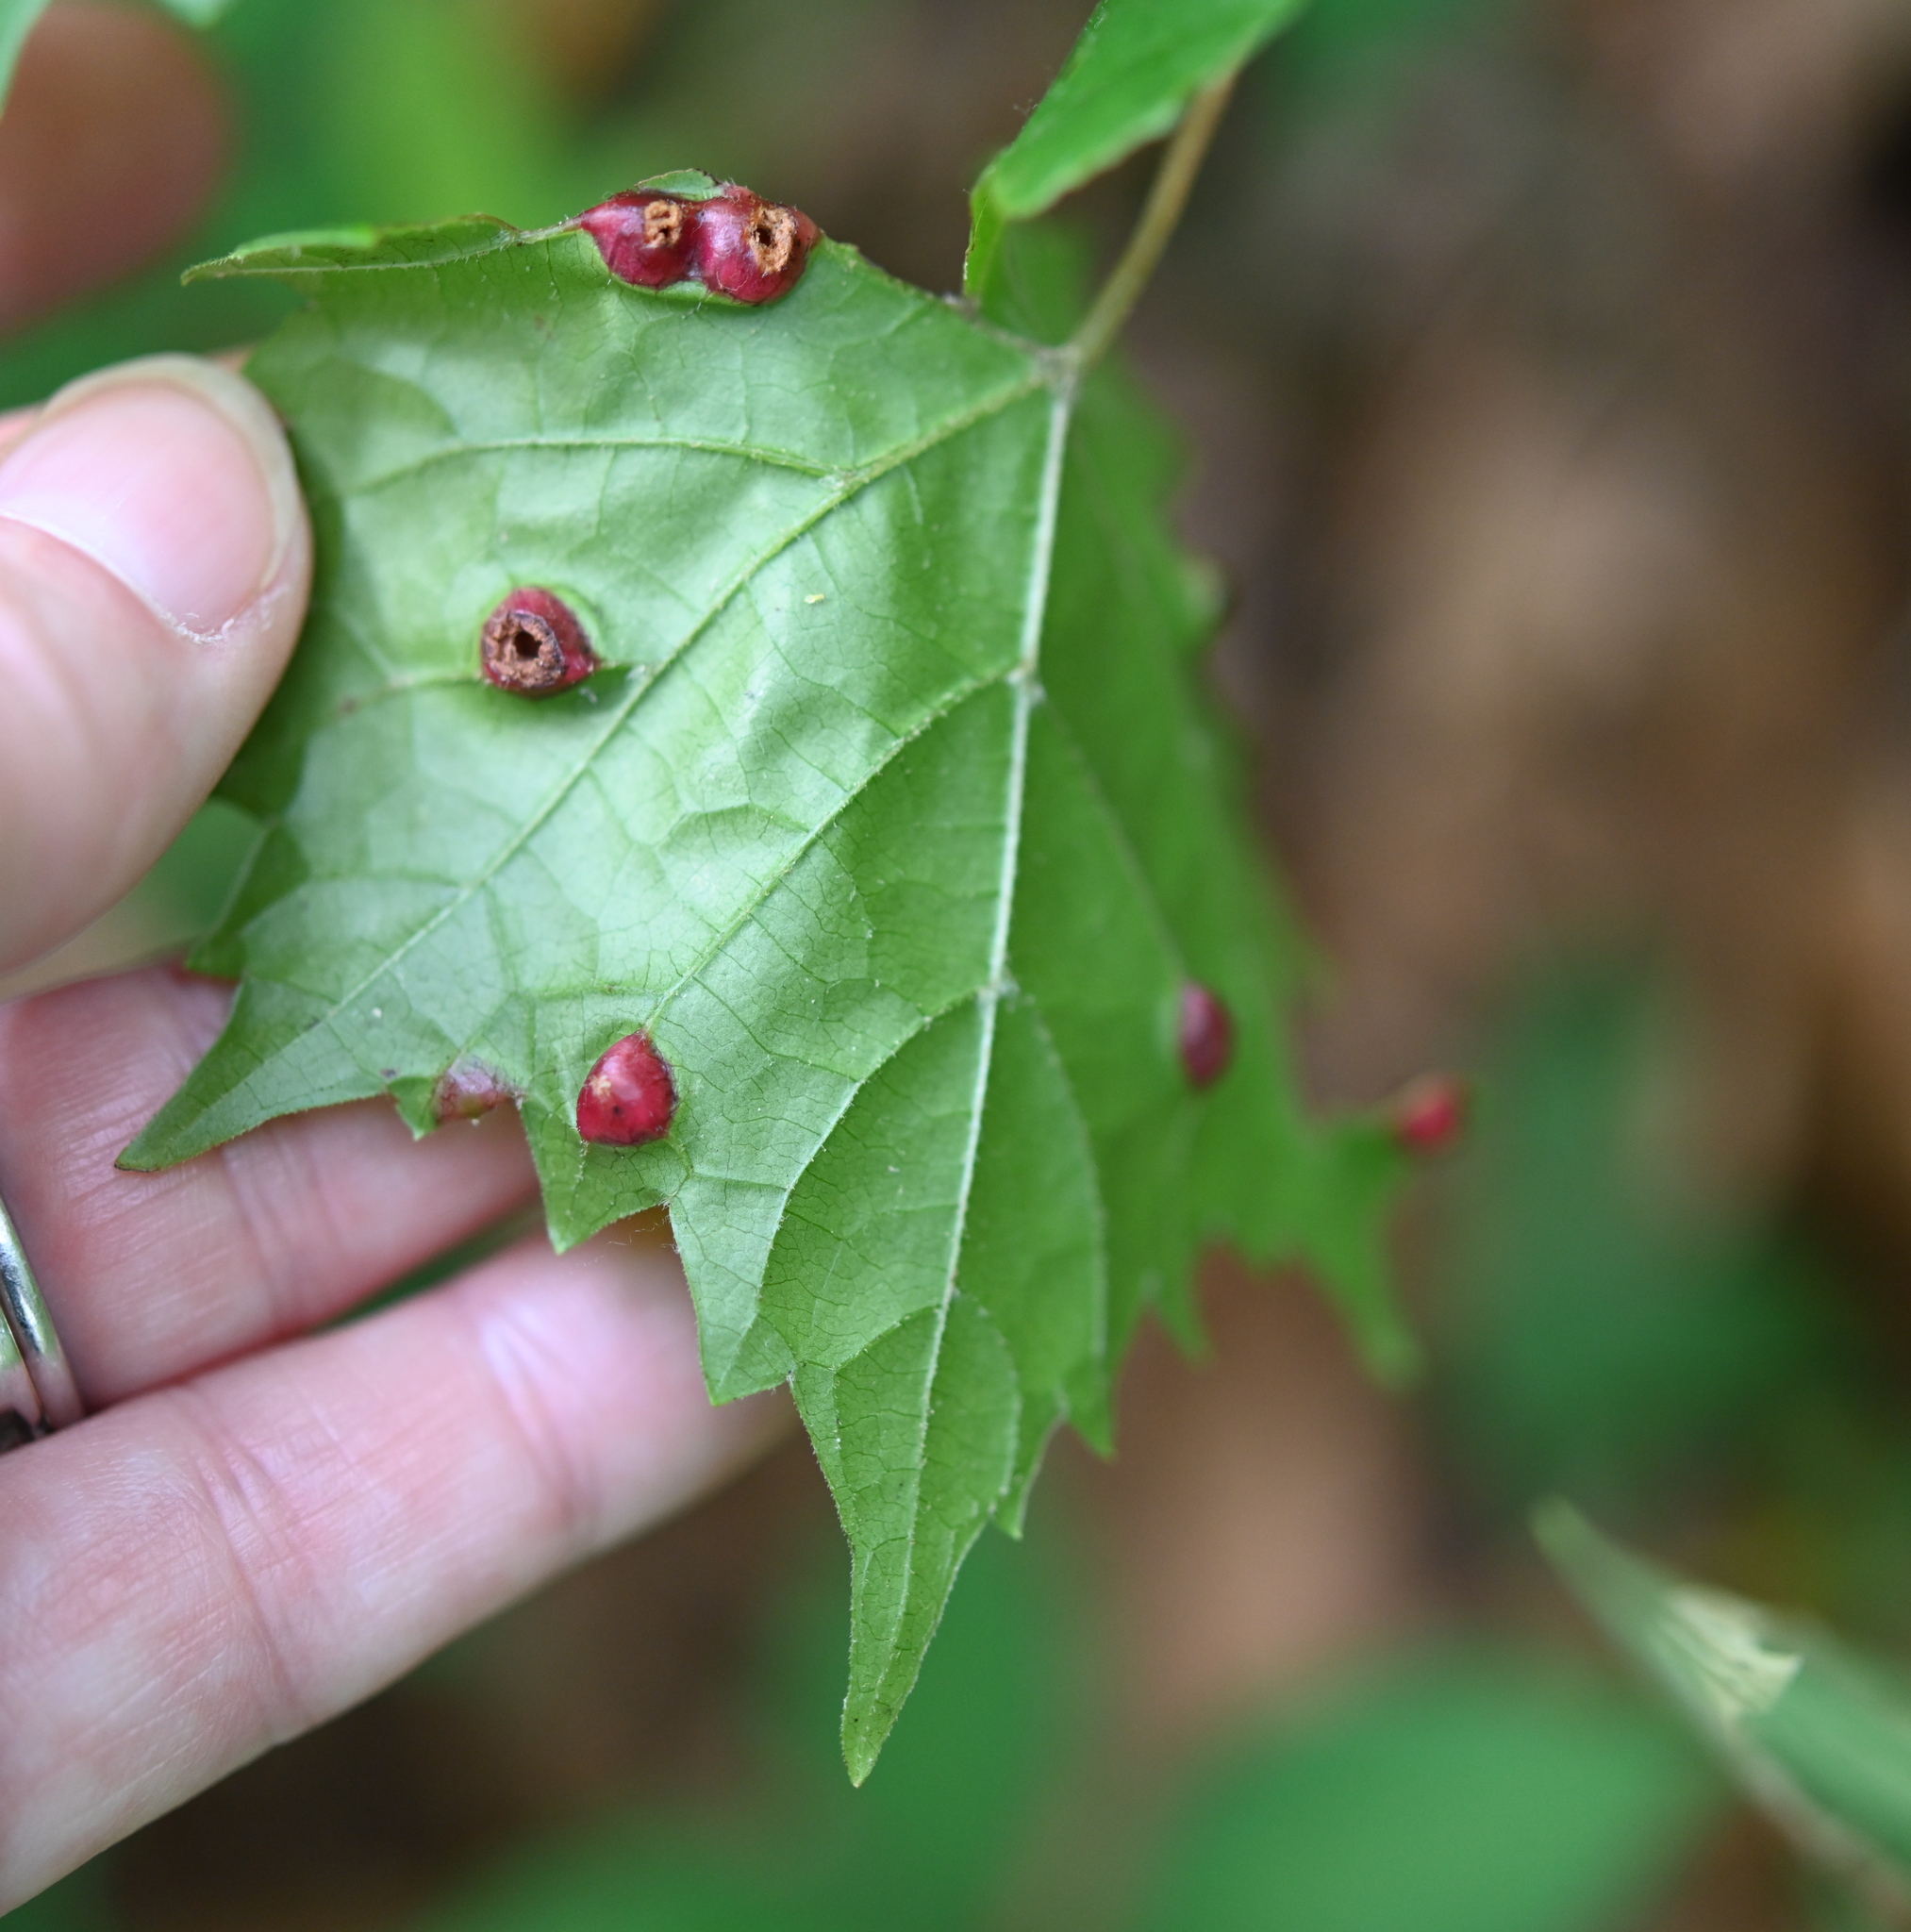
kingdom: Animalia
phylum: Arthropoda
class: Insecta
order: Diptera
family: Cecidomyiidae
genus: Vitisiella
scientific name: Vitisiella brevicauda
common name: Grape tumid gallmaker midge
